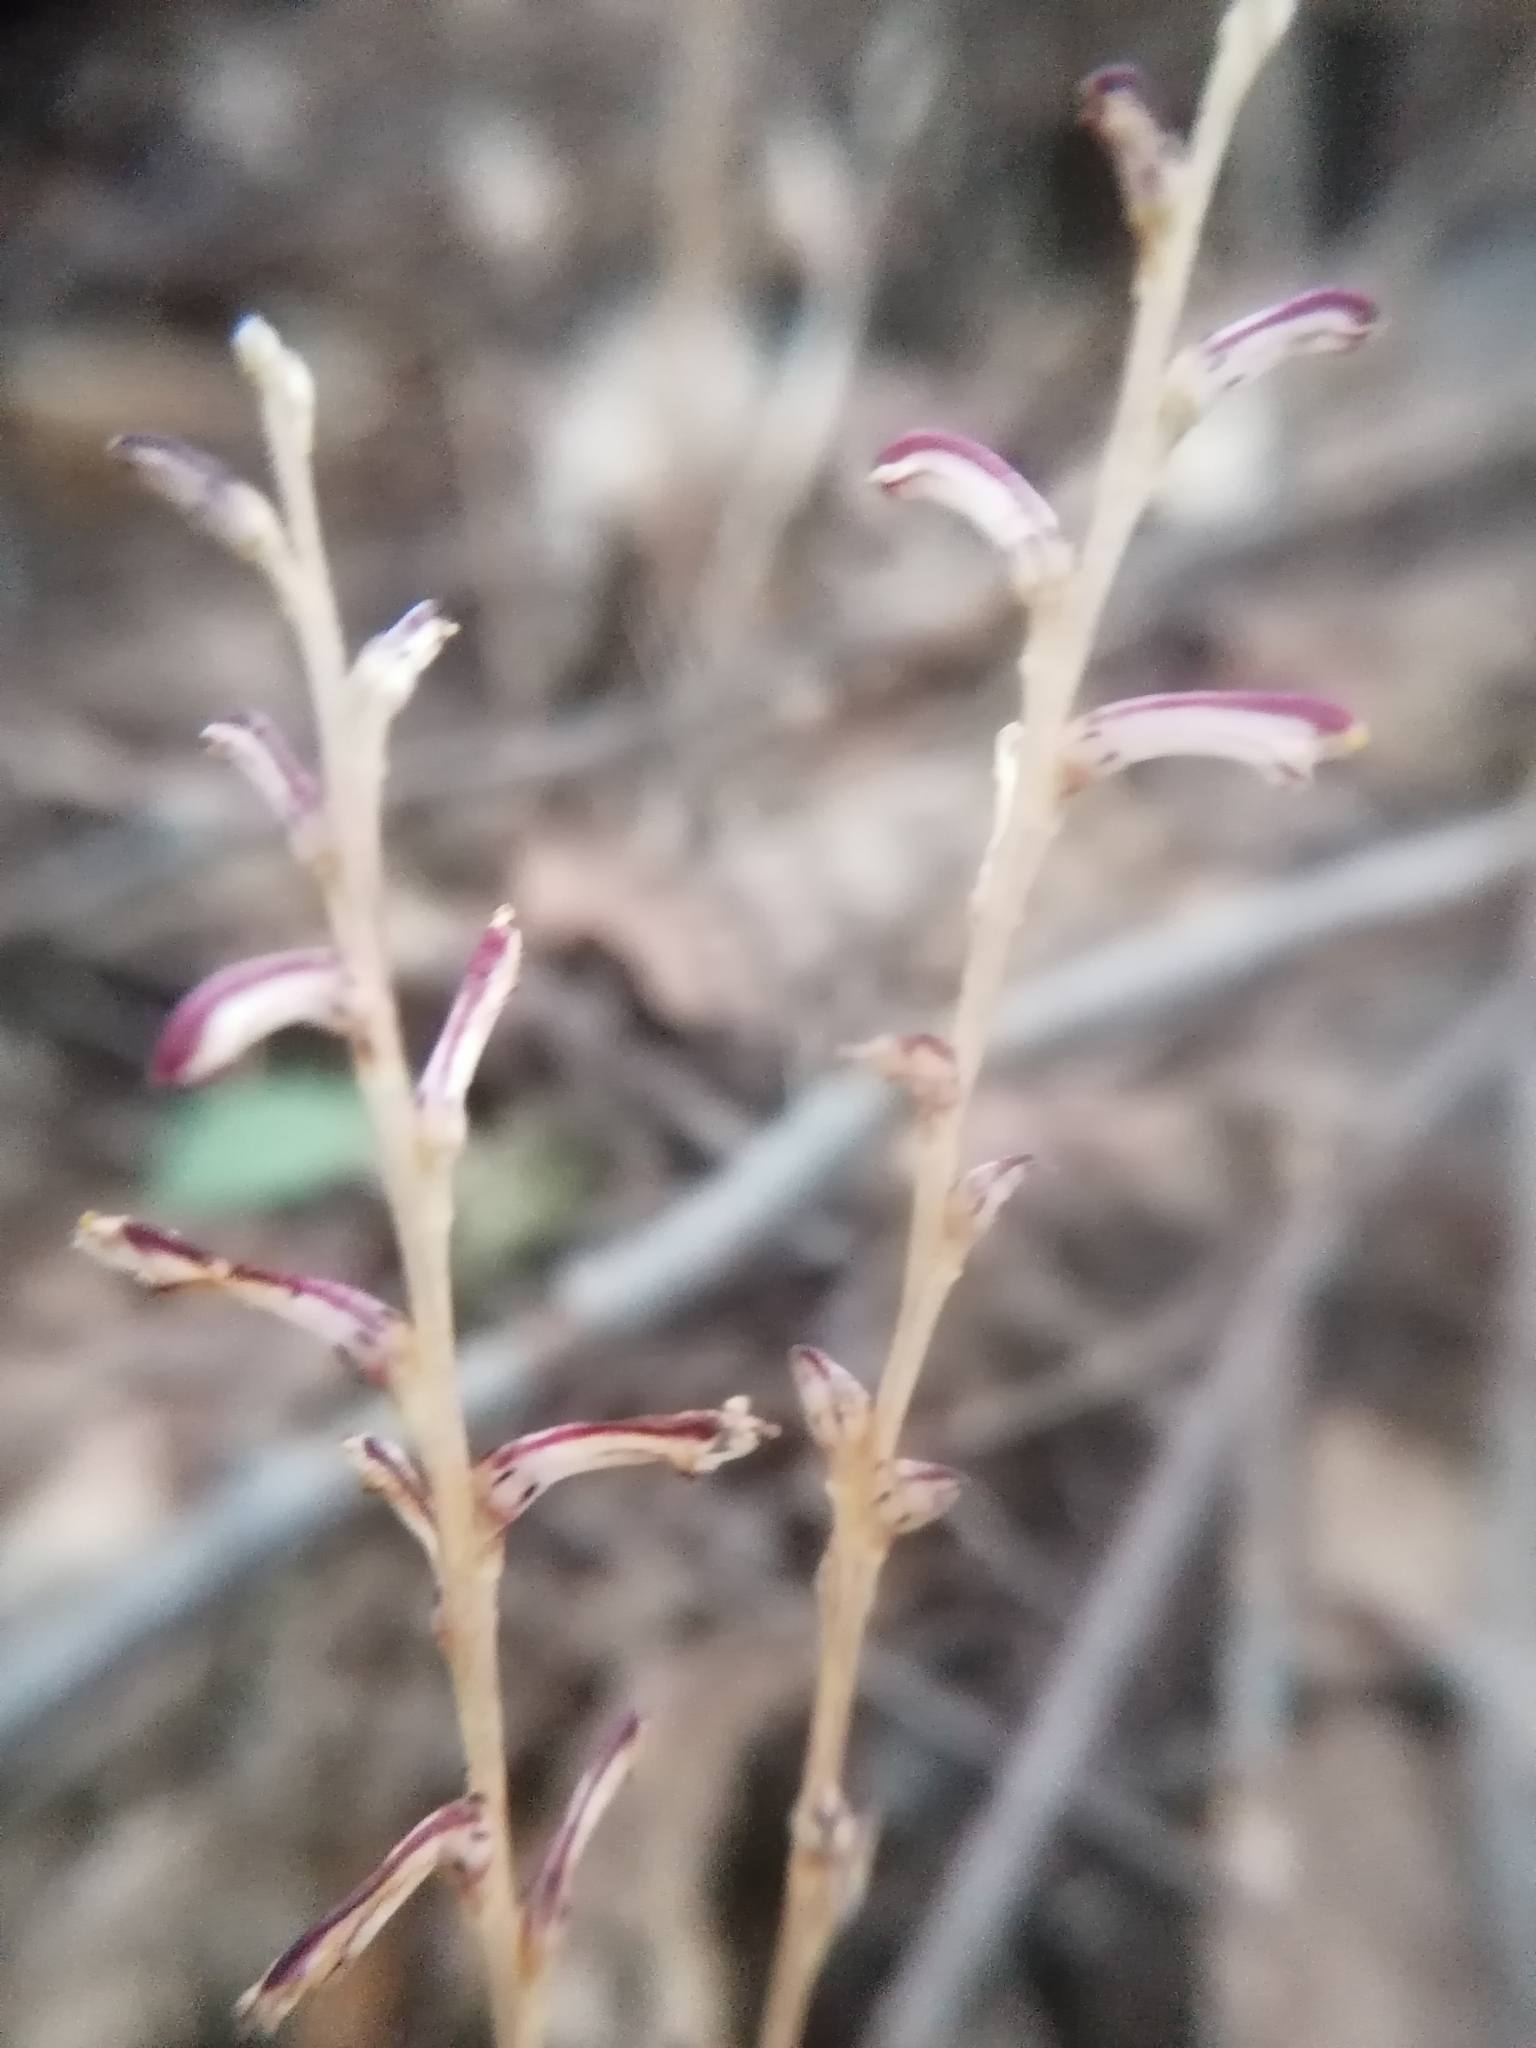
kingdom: Plantae
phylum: Tracheophyta
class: Magnoliopsida
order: Lamiales
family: Orobanchaceae
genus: Epifagus
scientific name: Epifagus virginiana
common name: Beechdrops
